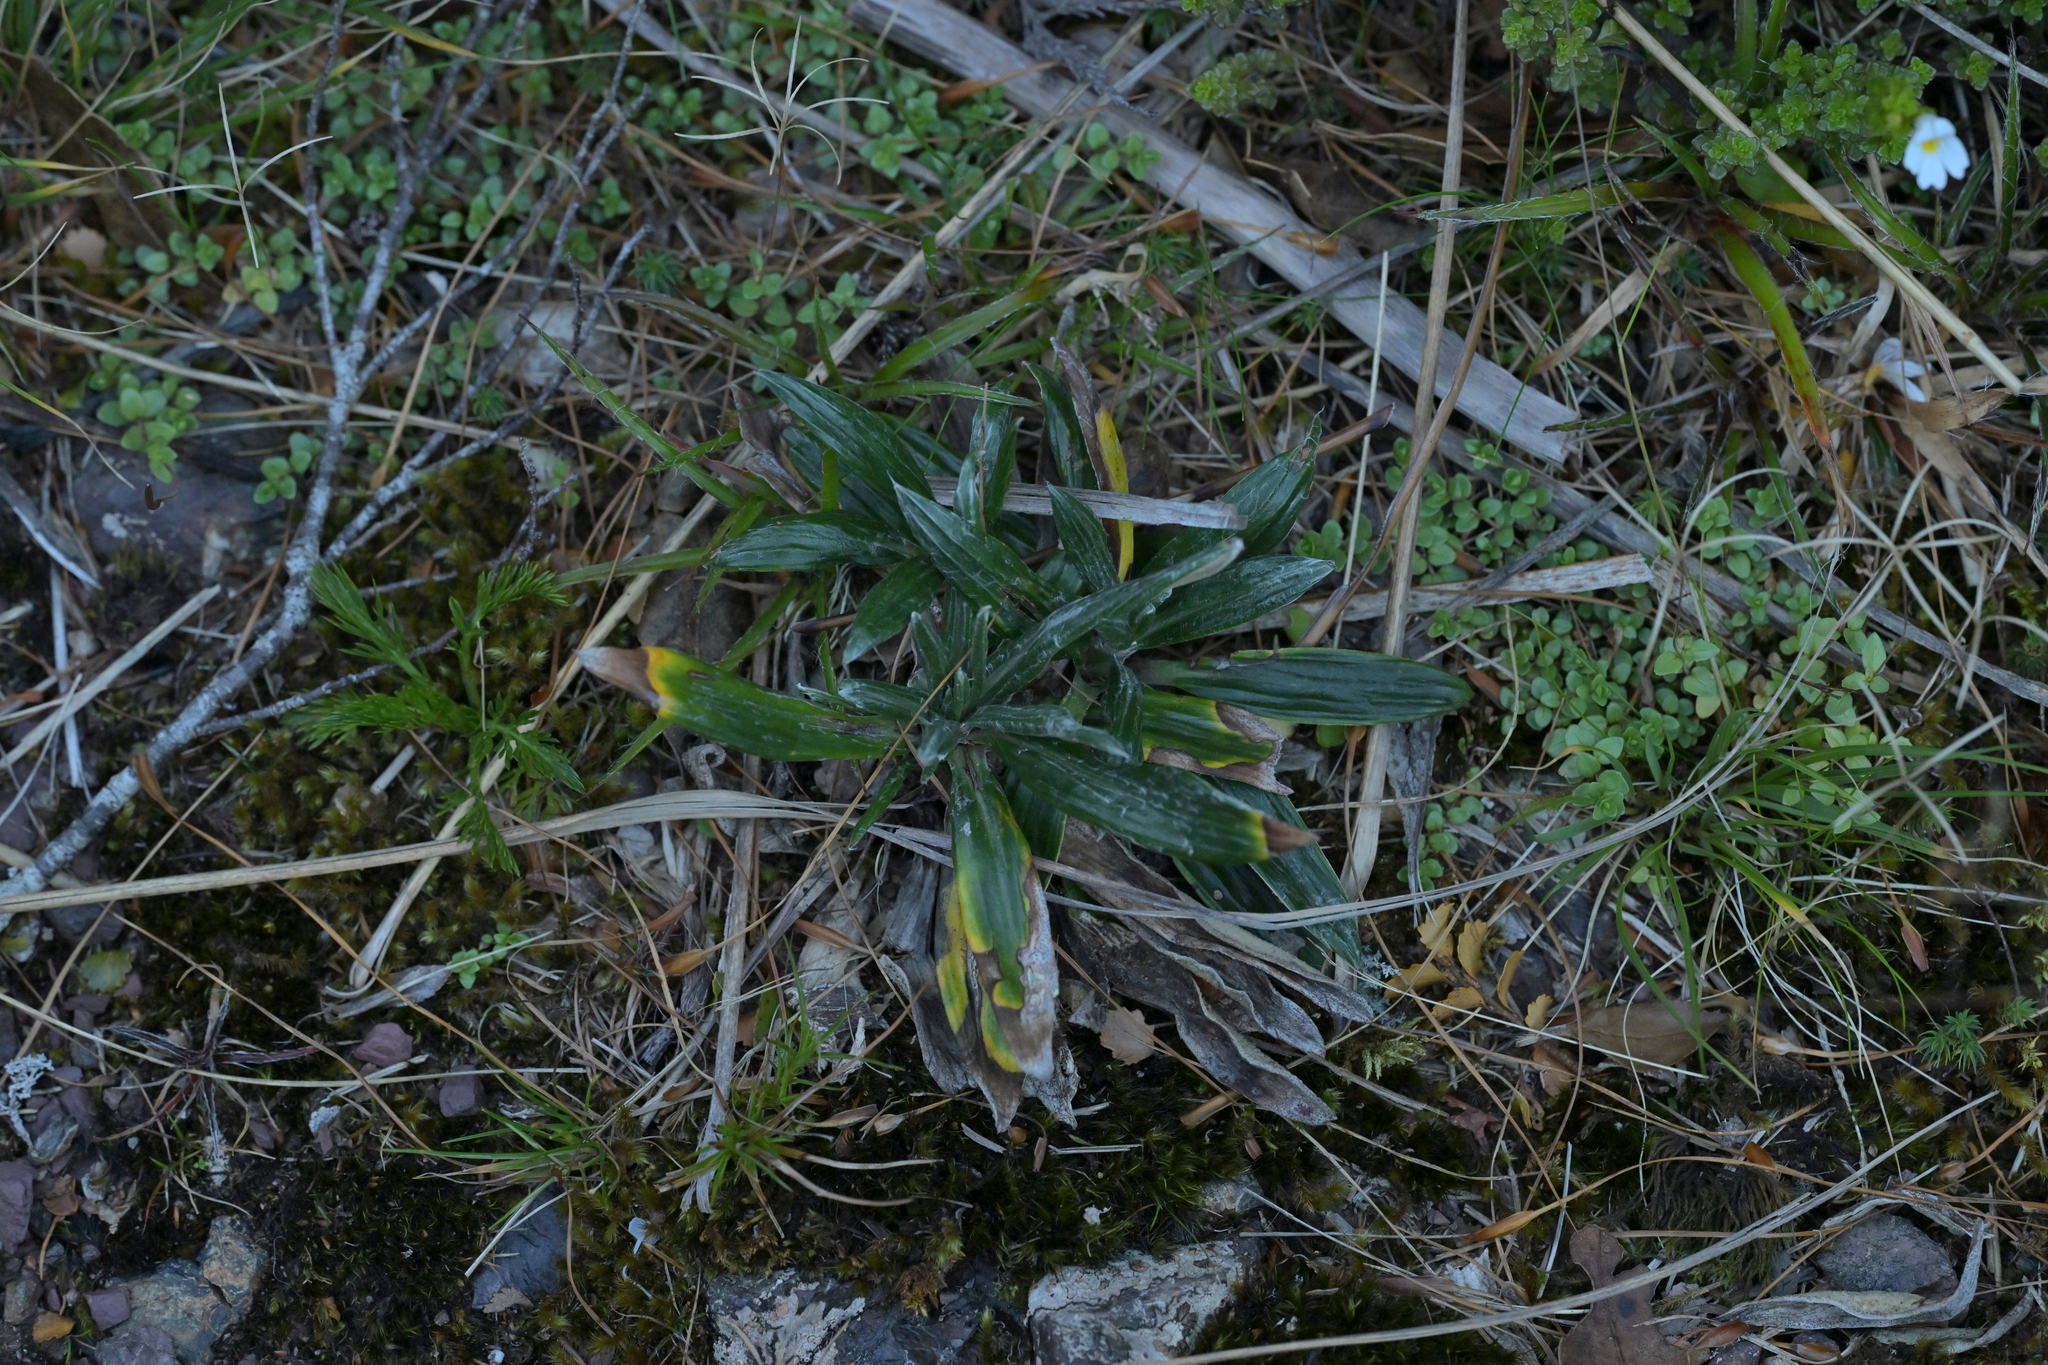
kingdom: Plantae
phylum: Tracheophyta
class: Magnoliopsida
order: Asterales
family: Asteraceae
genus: Celmisia
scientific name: Celmisia spectabilis
